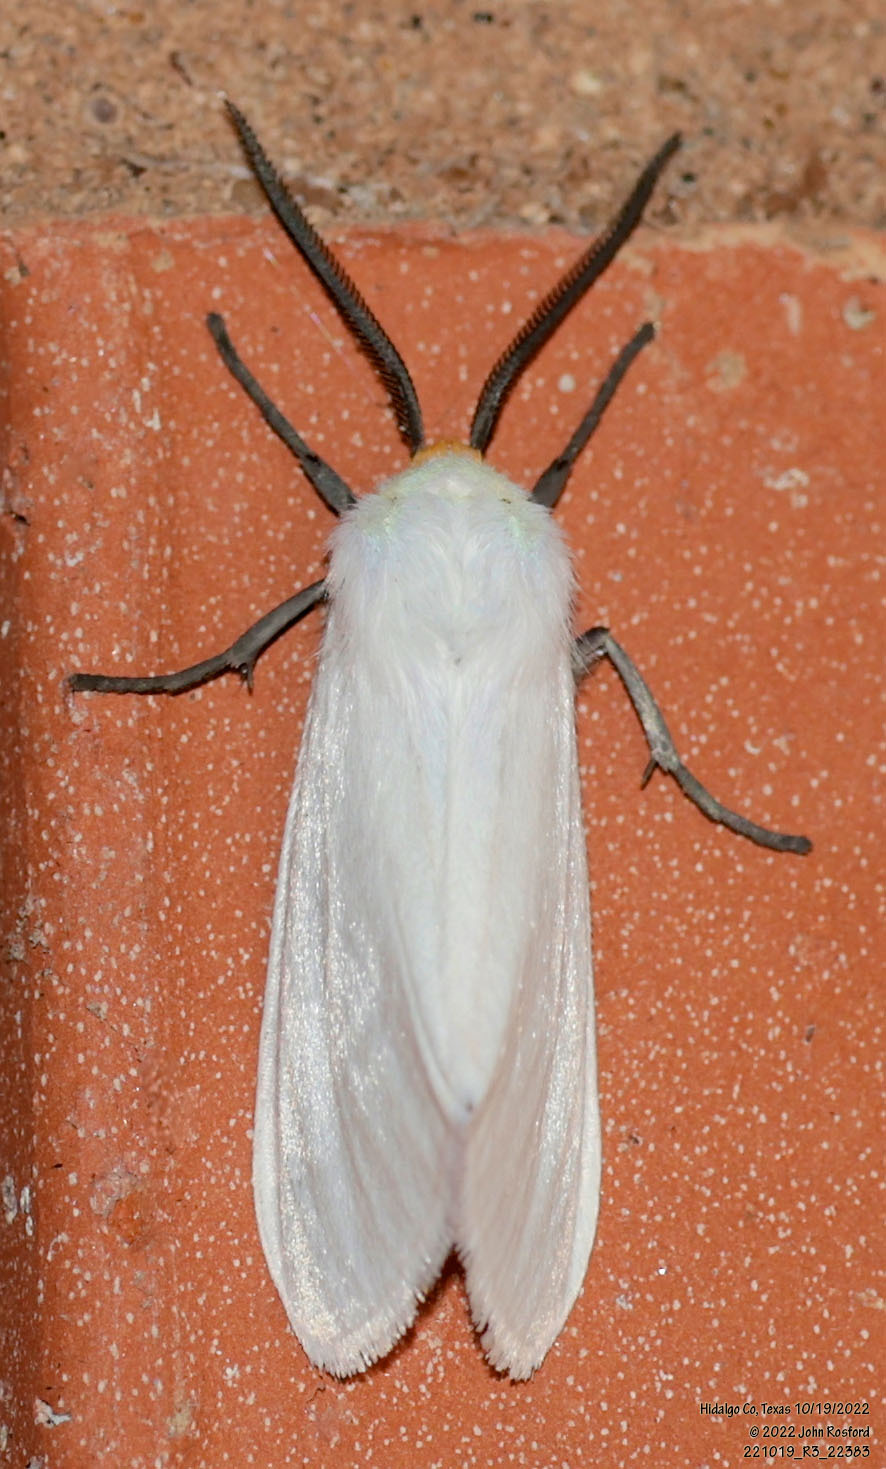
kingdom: Animalia
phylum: Arthropoda
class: Insecta
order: Lepidoptera
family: Erebidae
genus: Pygarctia
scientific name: Pygarctia flavidorsalis
